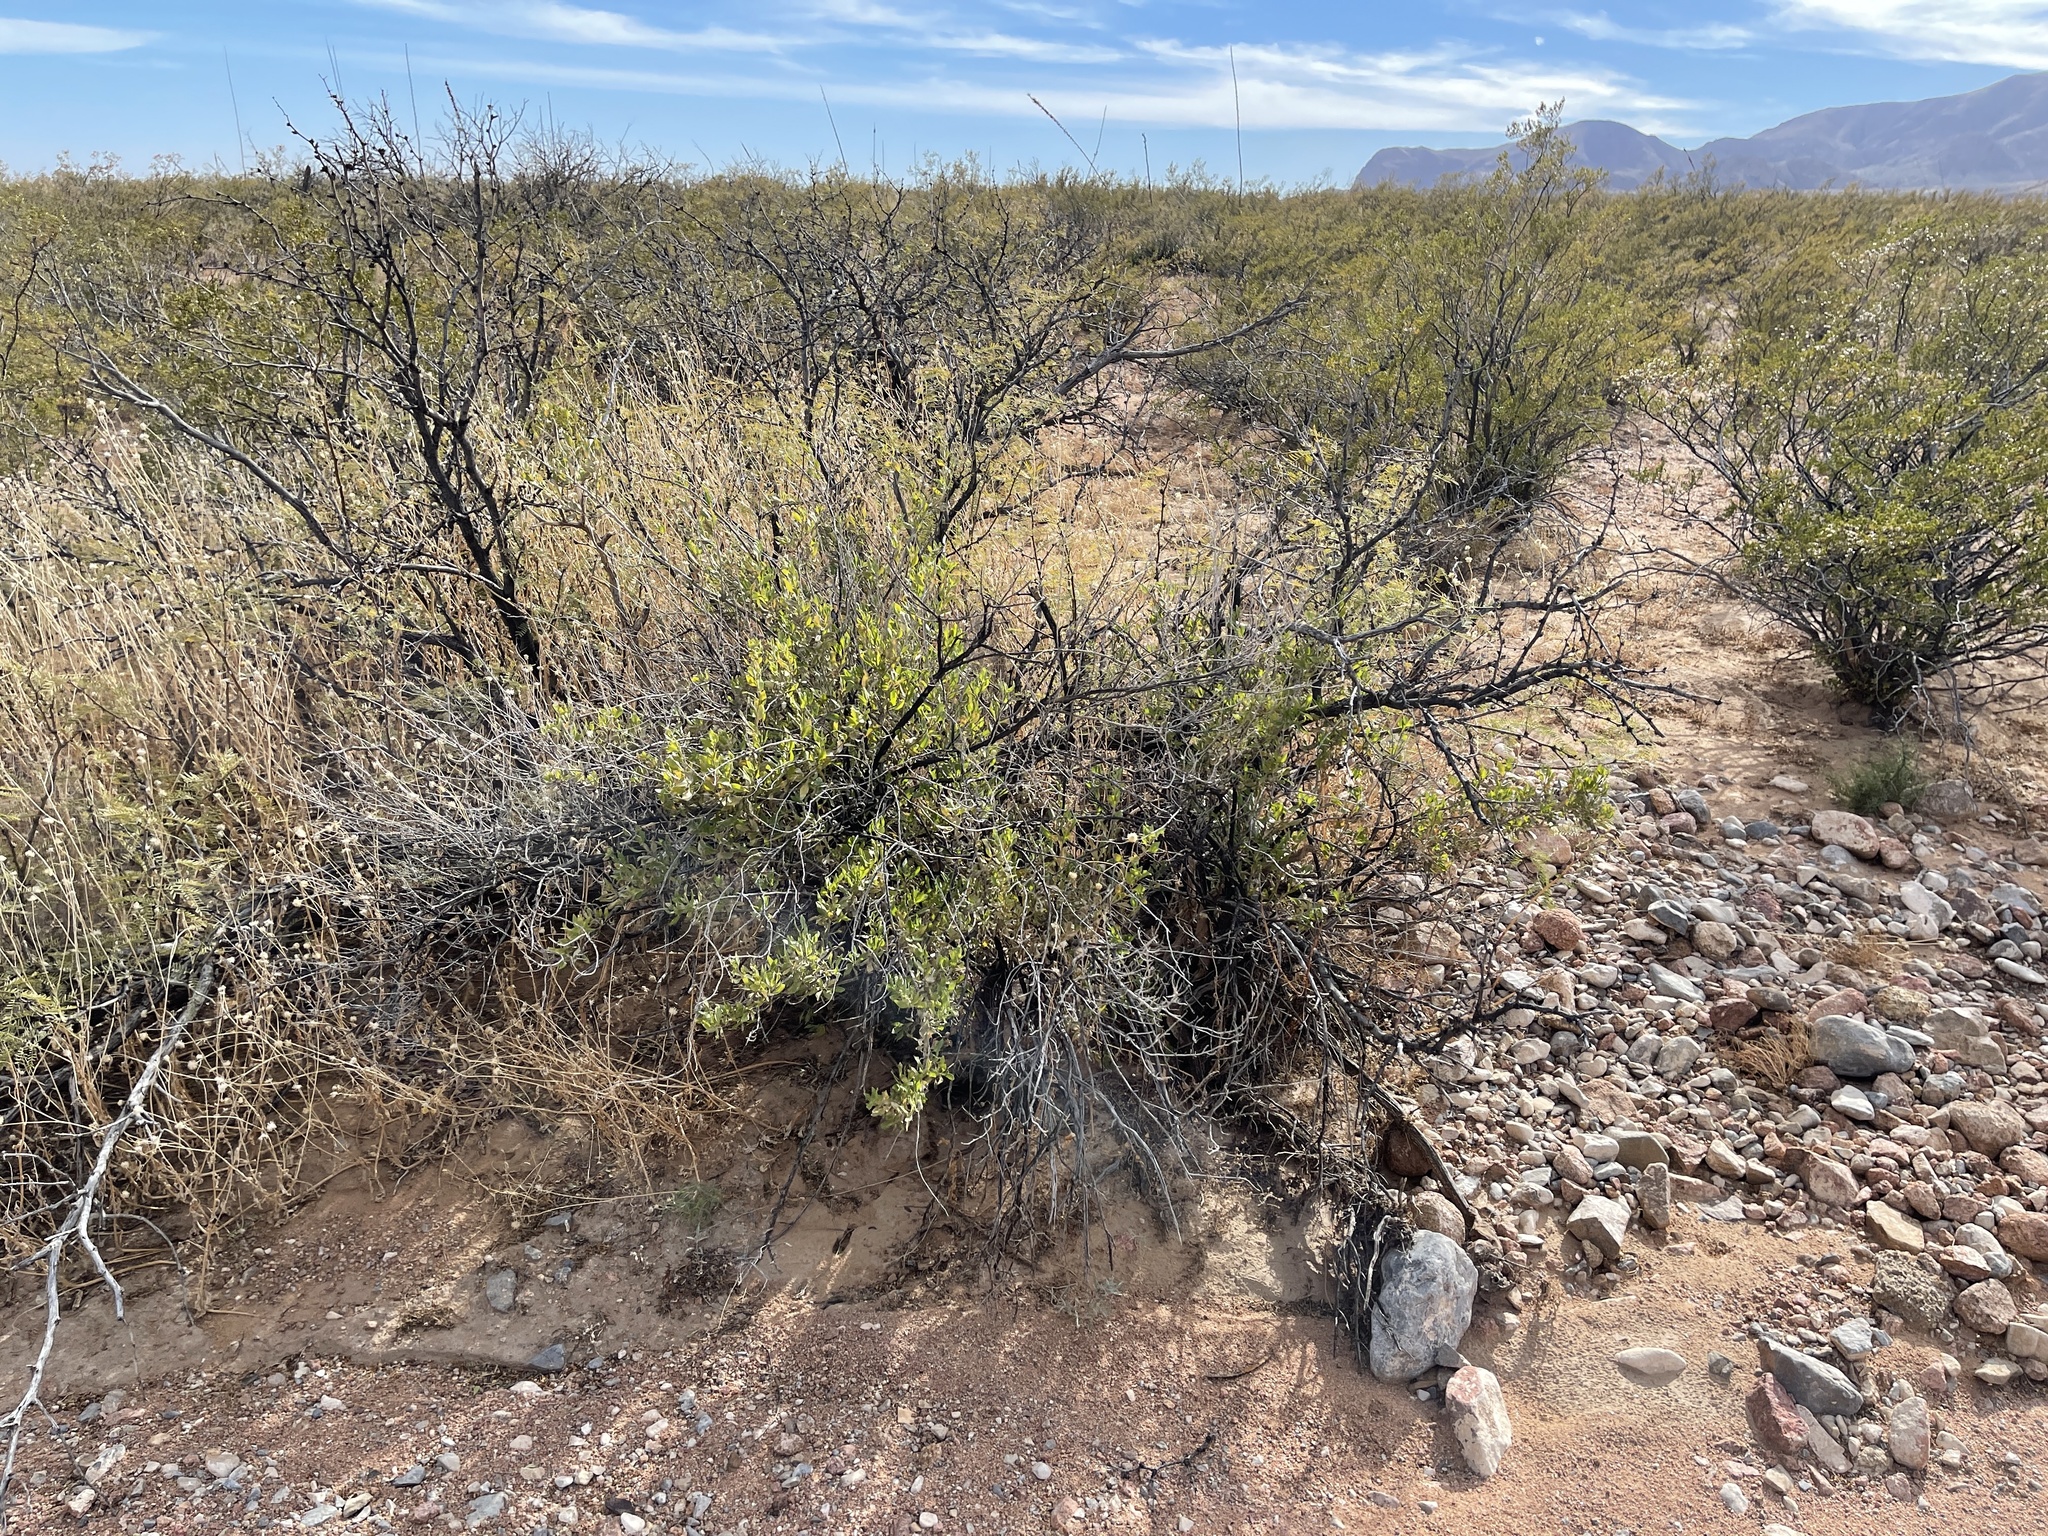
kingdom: Plantae
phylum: Tracheophyta
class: Magnoliopsida
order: Asterales
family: Asteraceae
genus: Flourensia
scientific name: Flourensia cernua
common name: Varnishbush
